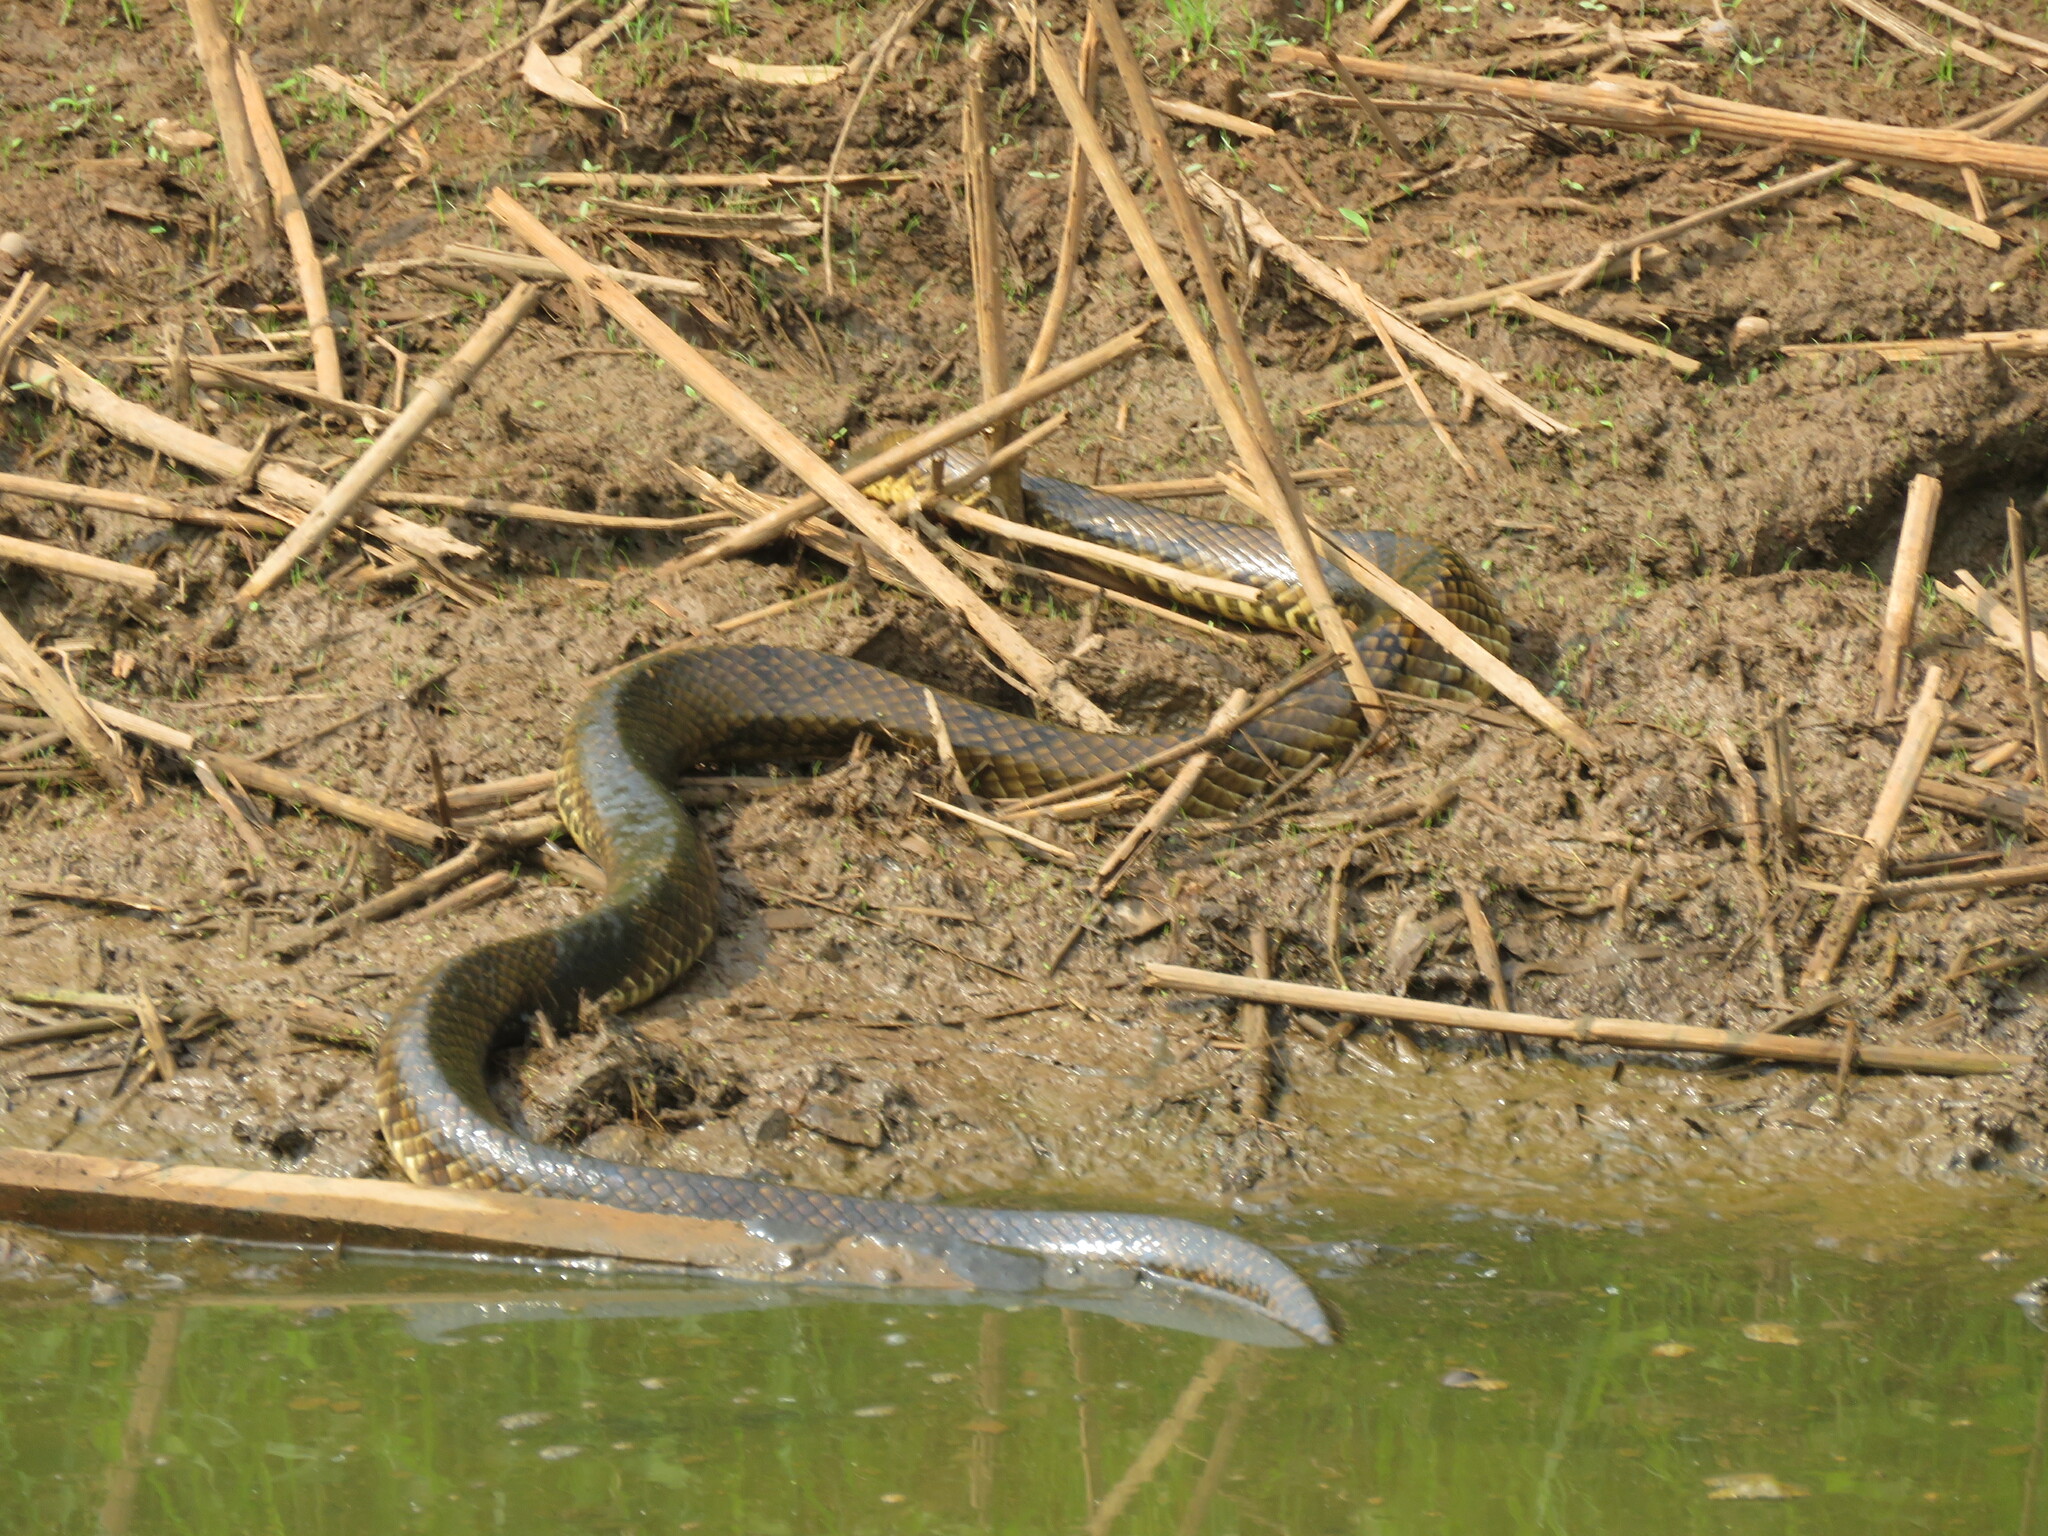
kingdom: Animalia
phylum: Chordata
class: Squamata
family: Colubridae
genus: Hydrodynastes
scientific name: Hydrodynastes gigas
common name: False water cobra
